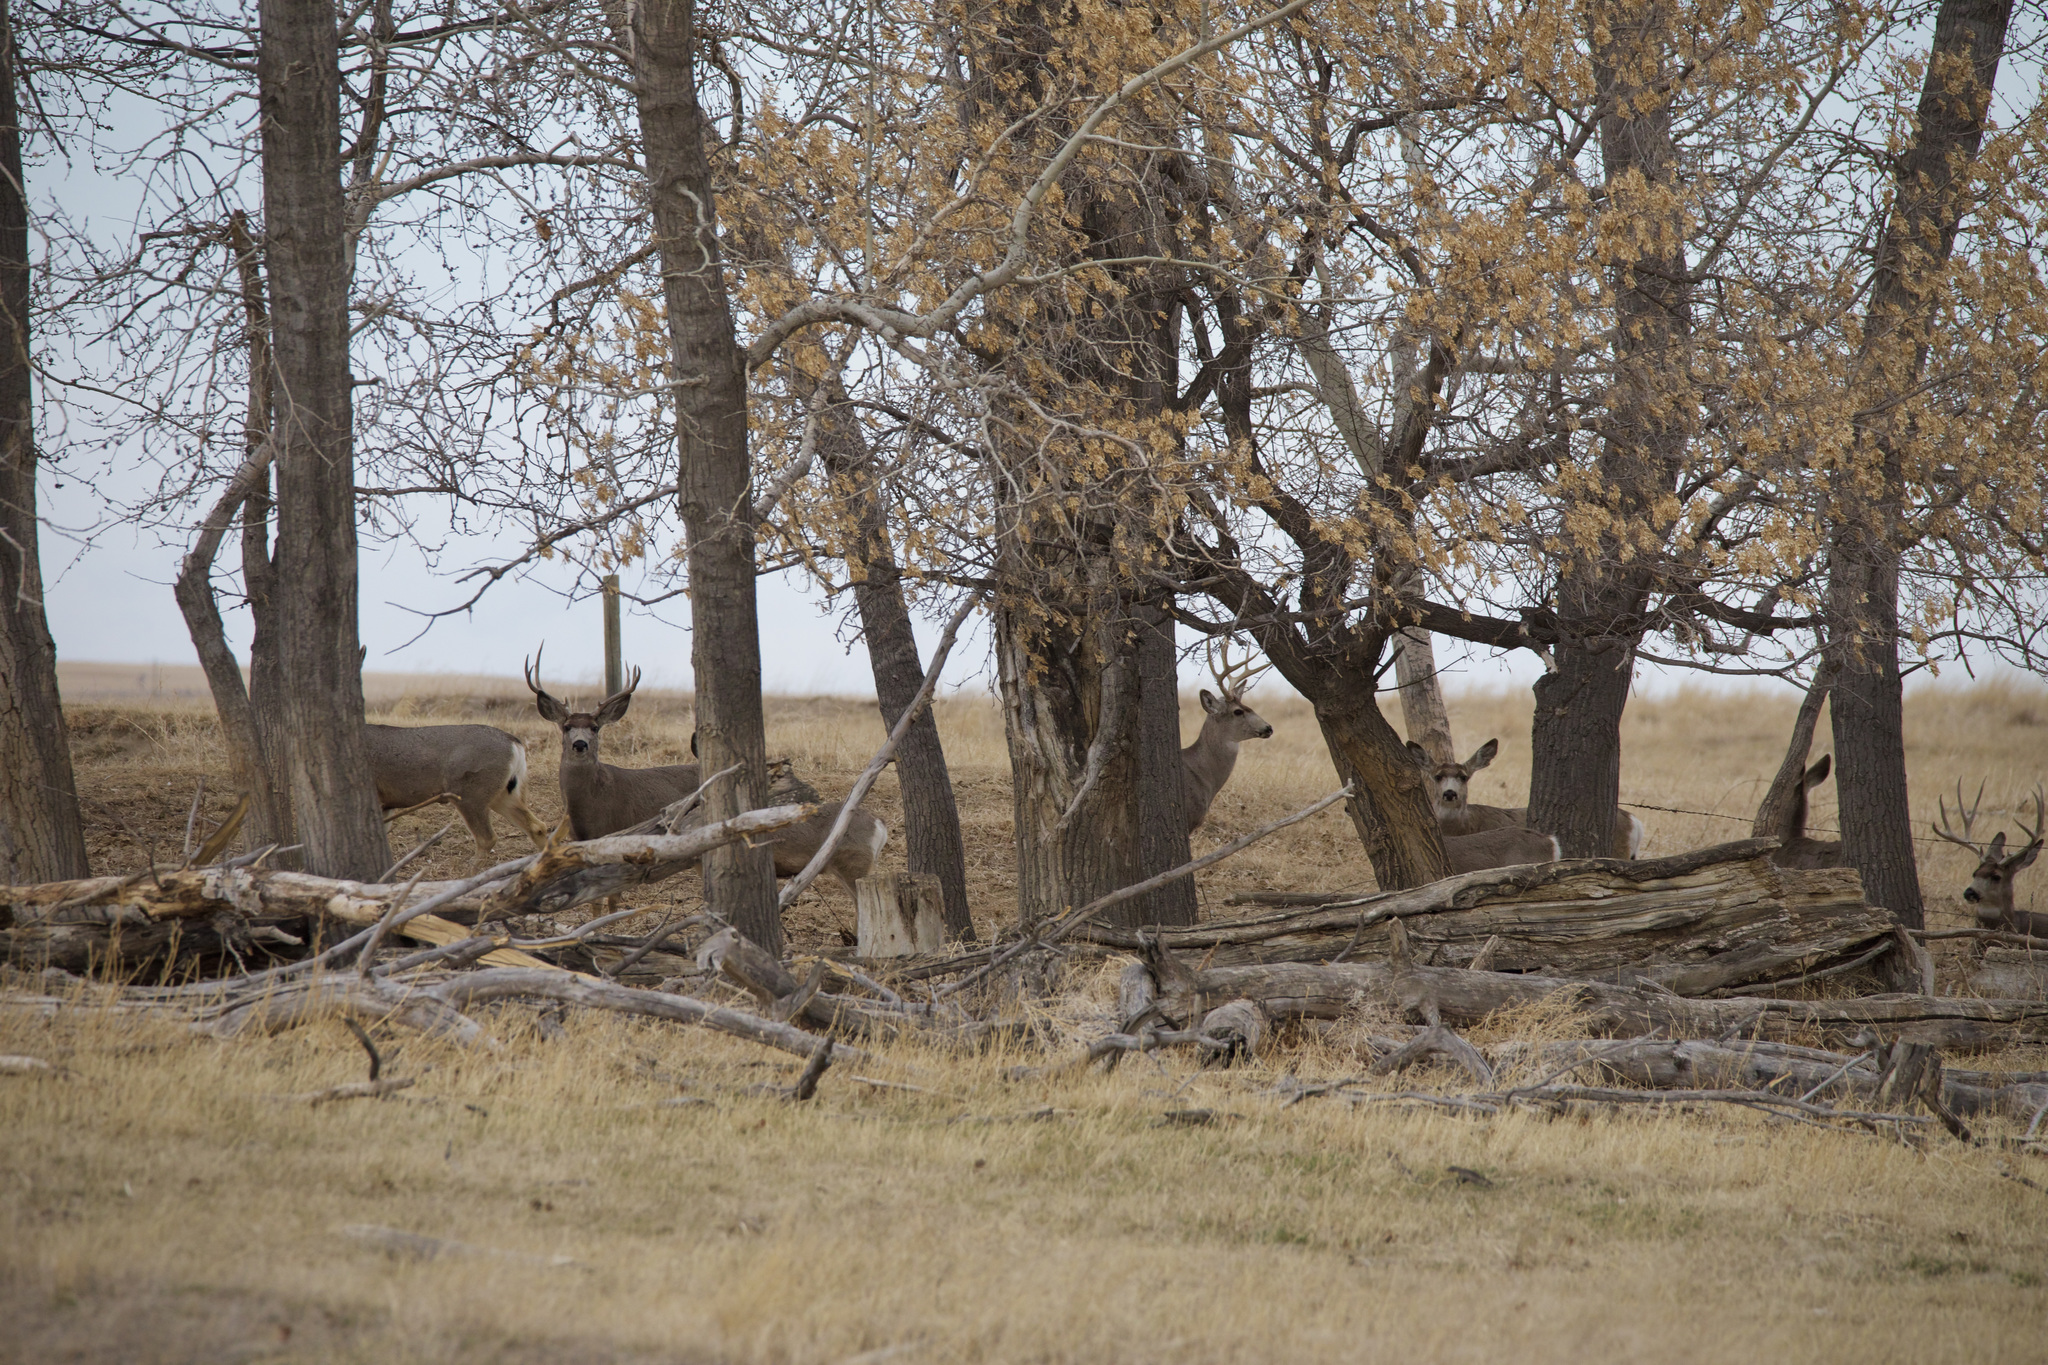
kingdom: Animalia
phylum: Chordata
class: Mammalia
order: Artiodactyla
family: Cervidae
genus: Odocoileus
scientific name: Odocoileus hemionus
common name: Mule deer
